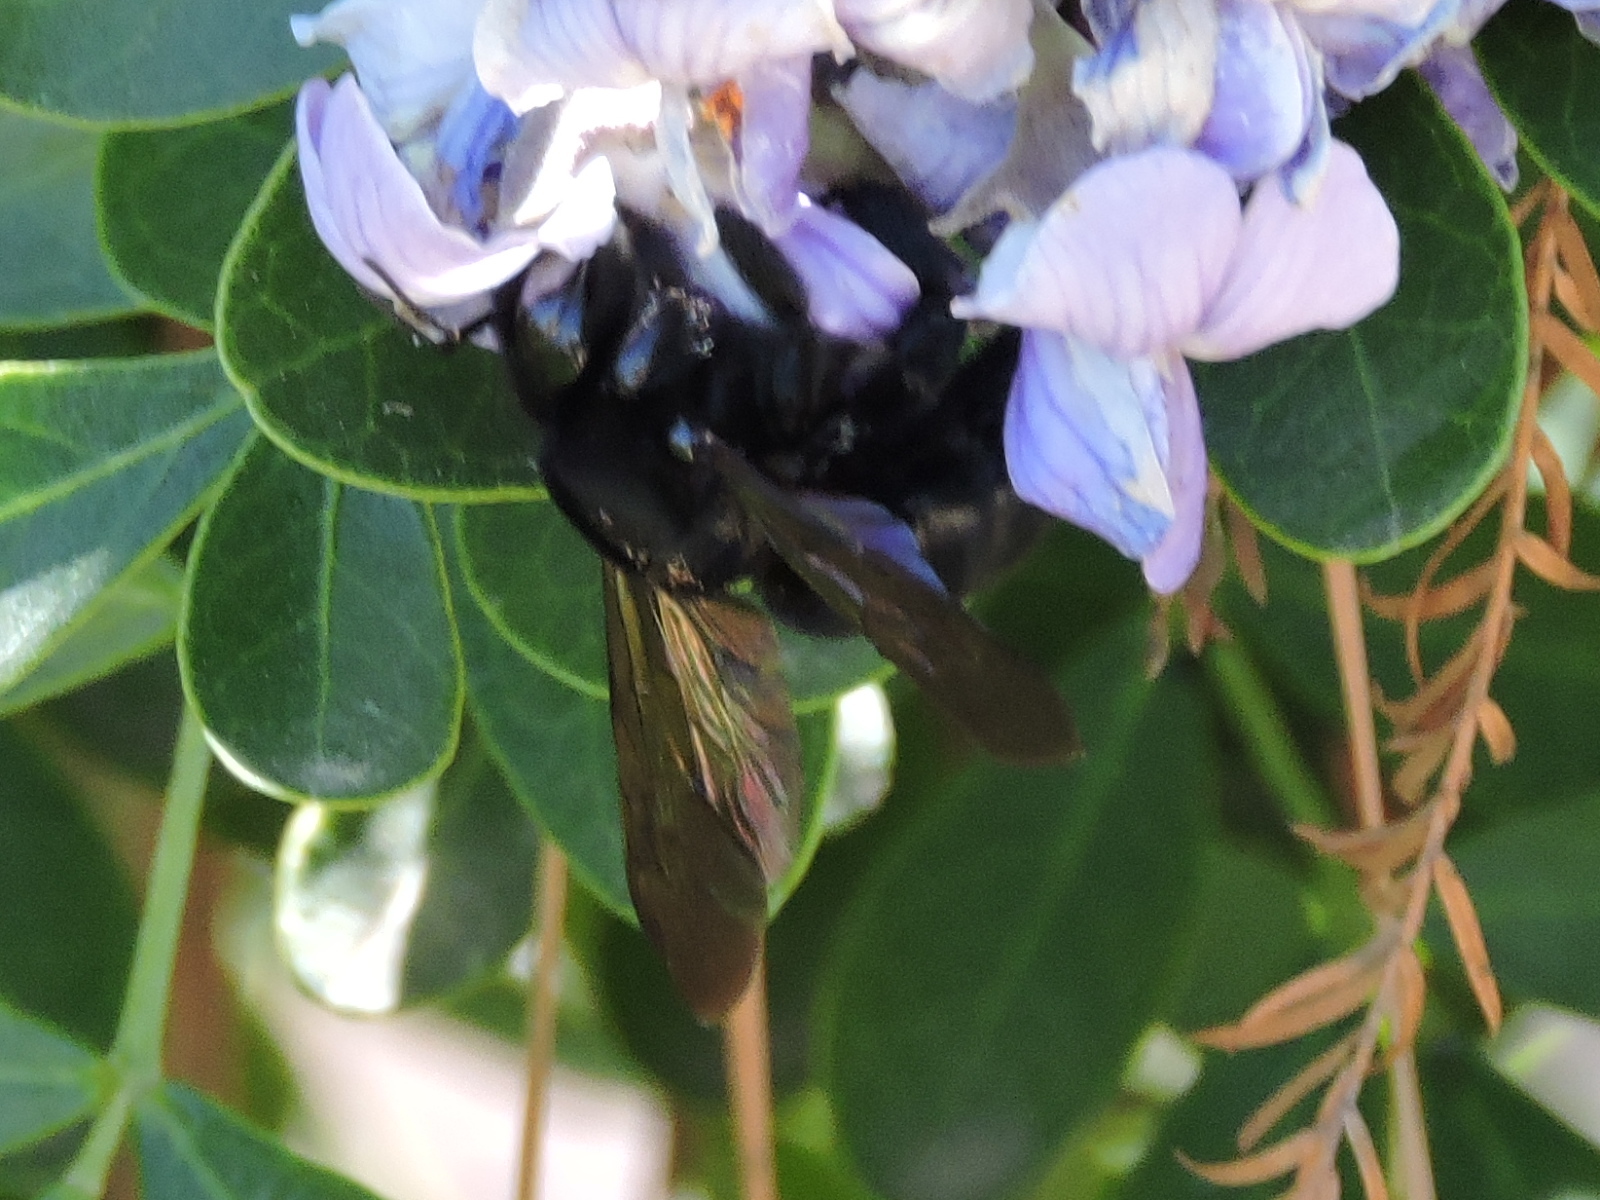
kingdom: Animalia
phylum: Arthropoda
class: Insecta
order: Hymenoptera
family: Apidae
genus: Xylocopa
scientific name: Xylocopa micans
